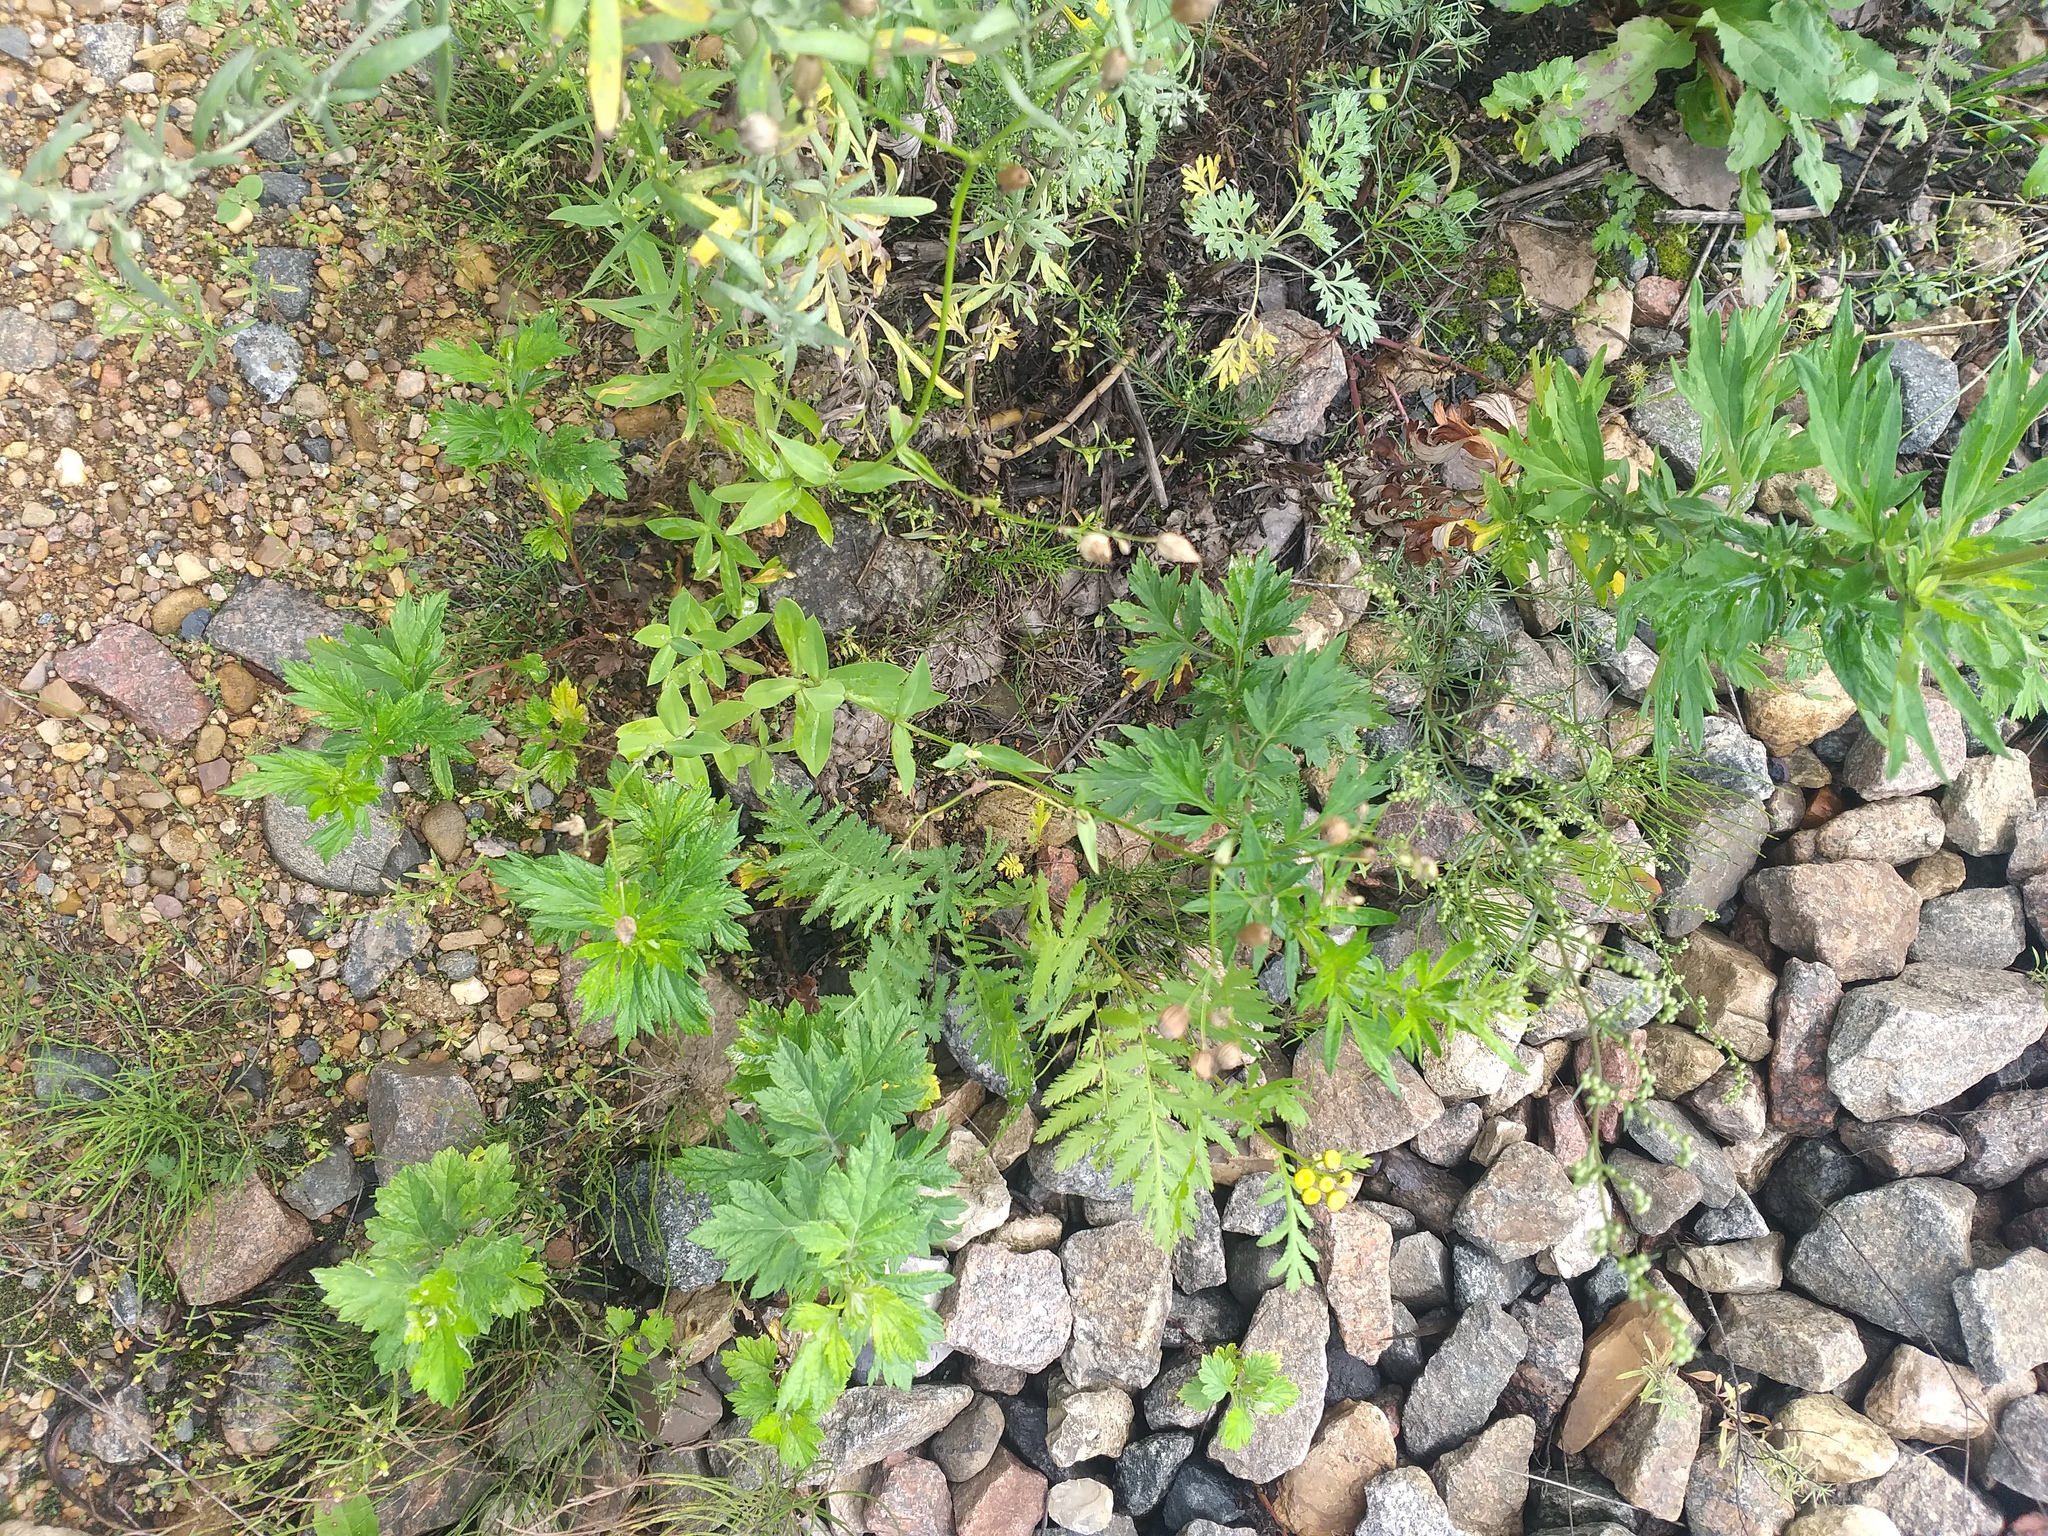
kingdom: Plantae
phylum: Tracheophyta
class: Magnoliopsida
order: Caryophyllales
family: Caryophyllaceae
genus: Silene
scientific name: Silene vulgaris
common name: Bladder campion
